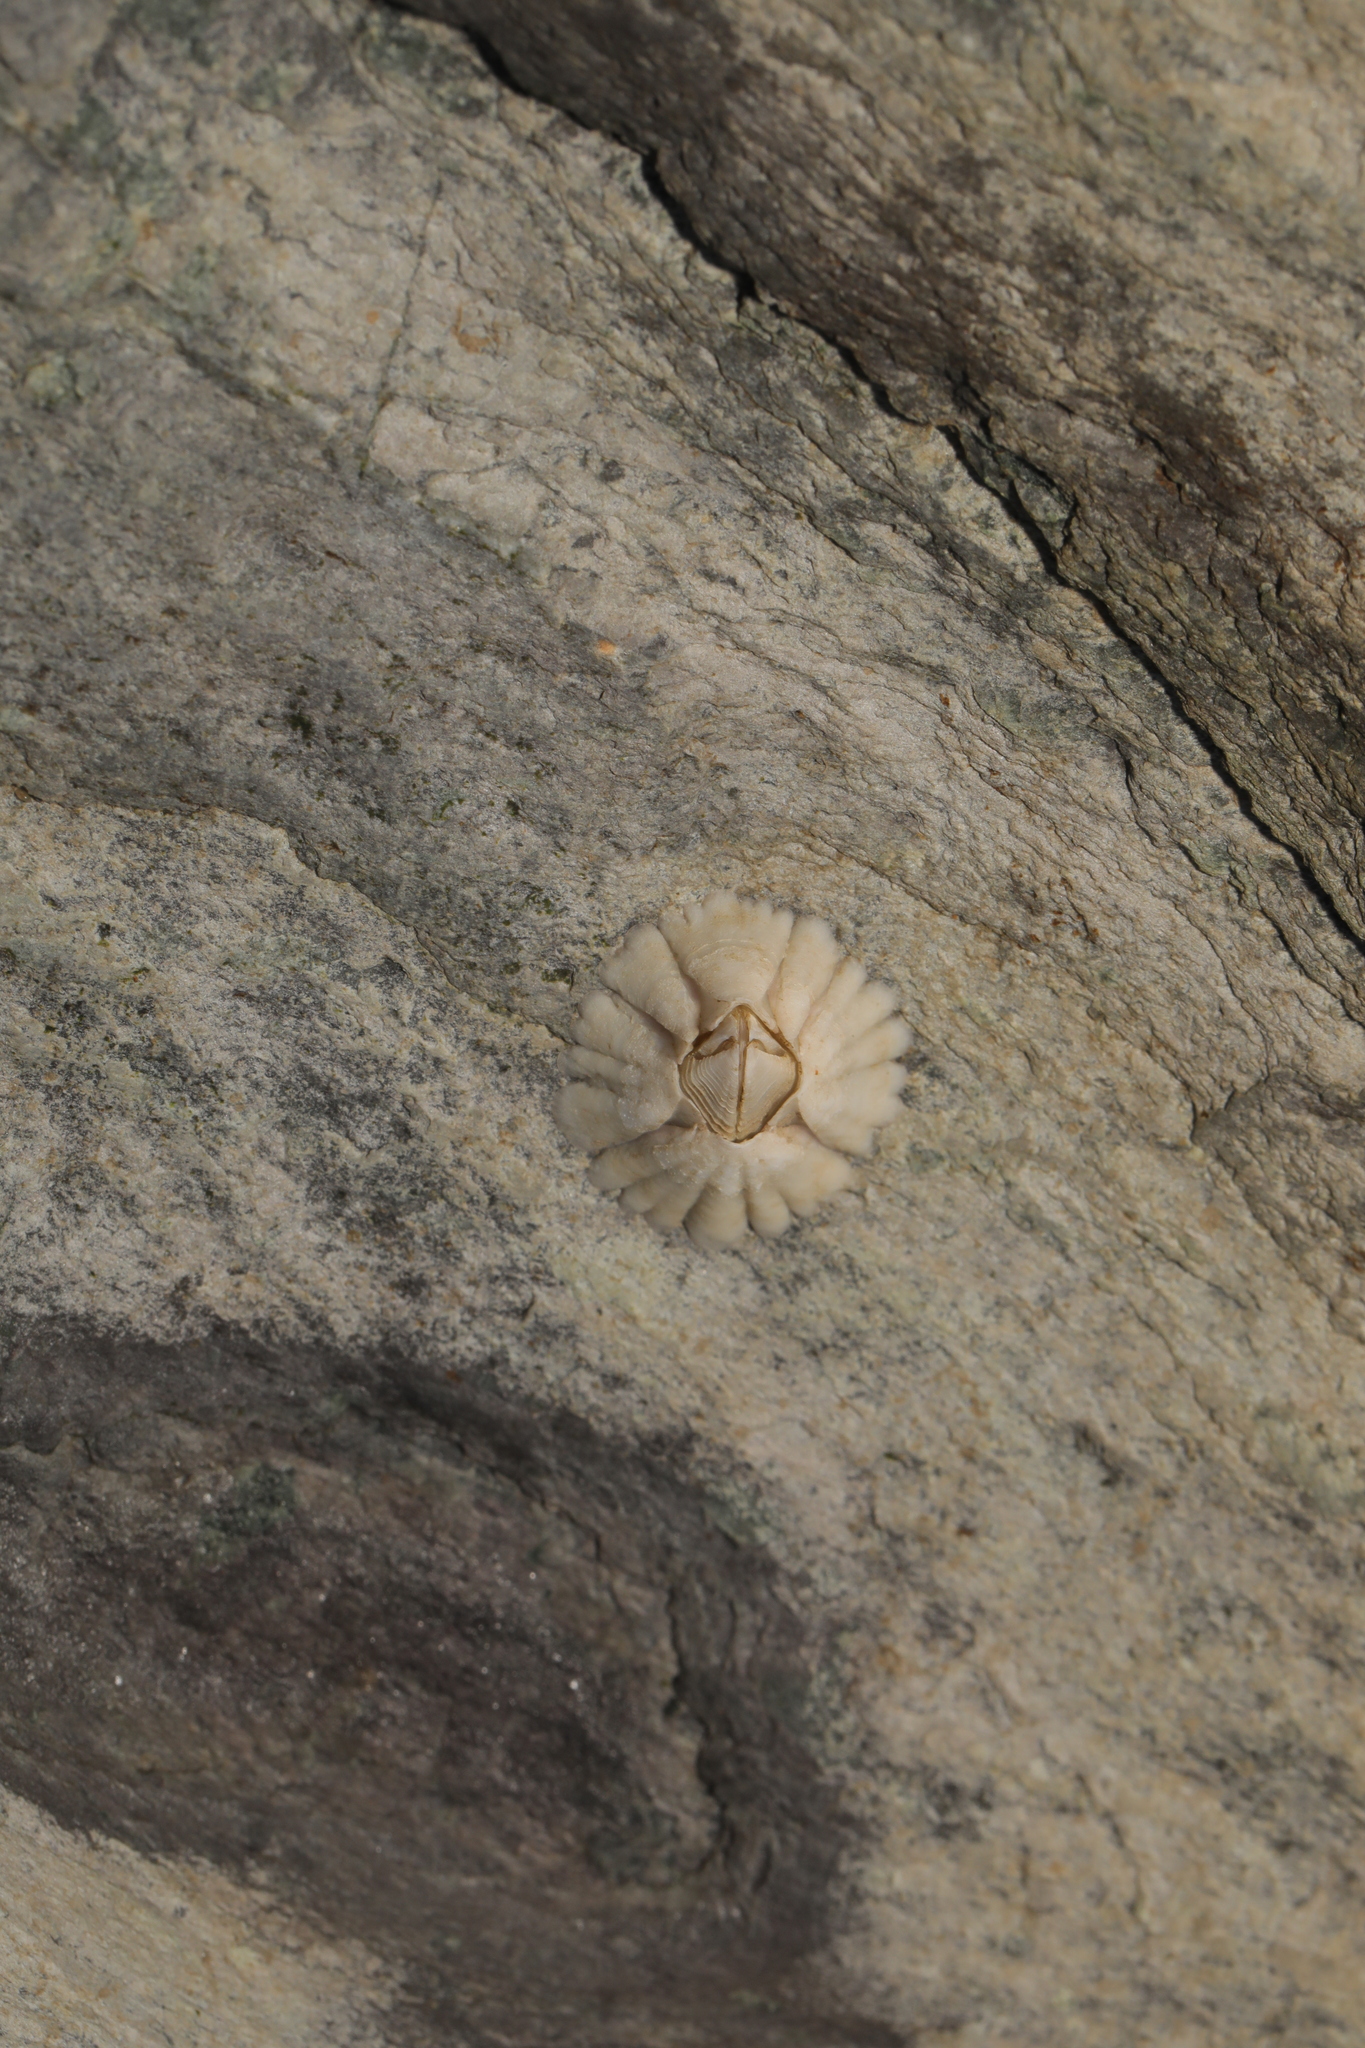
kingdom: Animalia
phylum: Arthropoda
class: Maxillopoda
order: Sessilia
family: Archaeobalanidae
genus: Semibalanus
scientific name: Semibalanus balanoides
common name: Acorn barnacle
